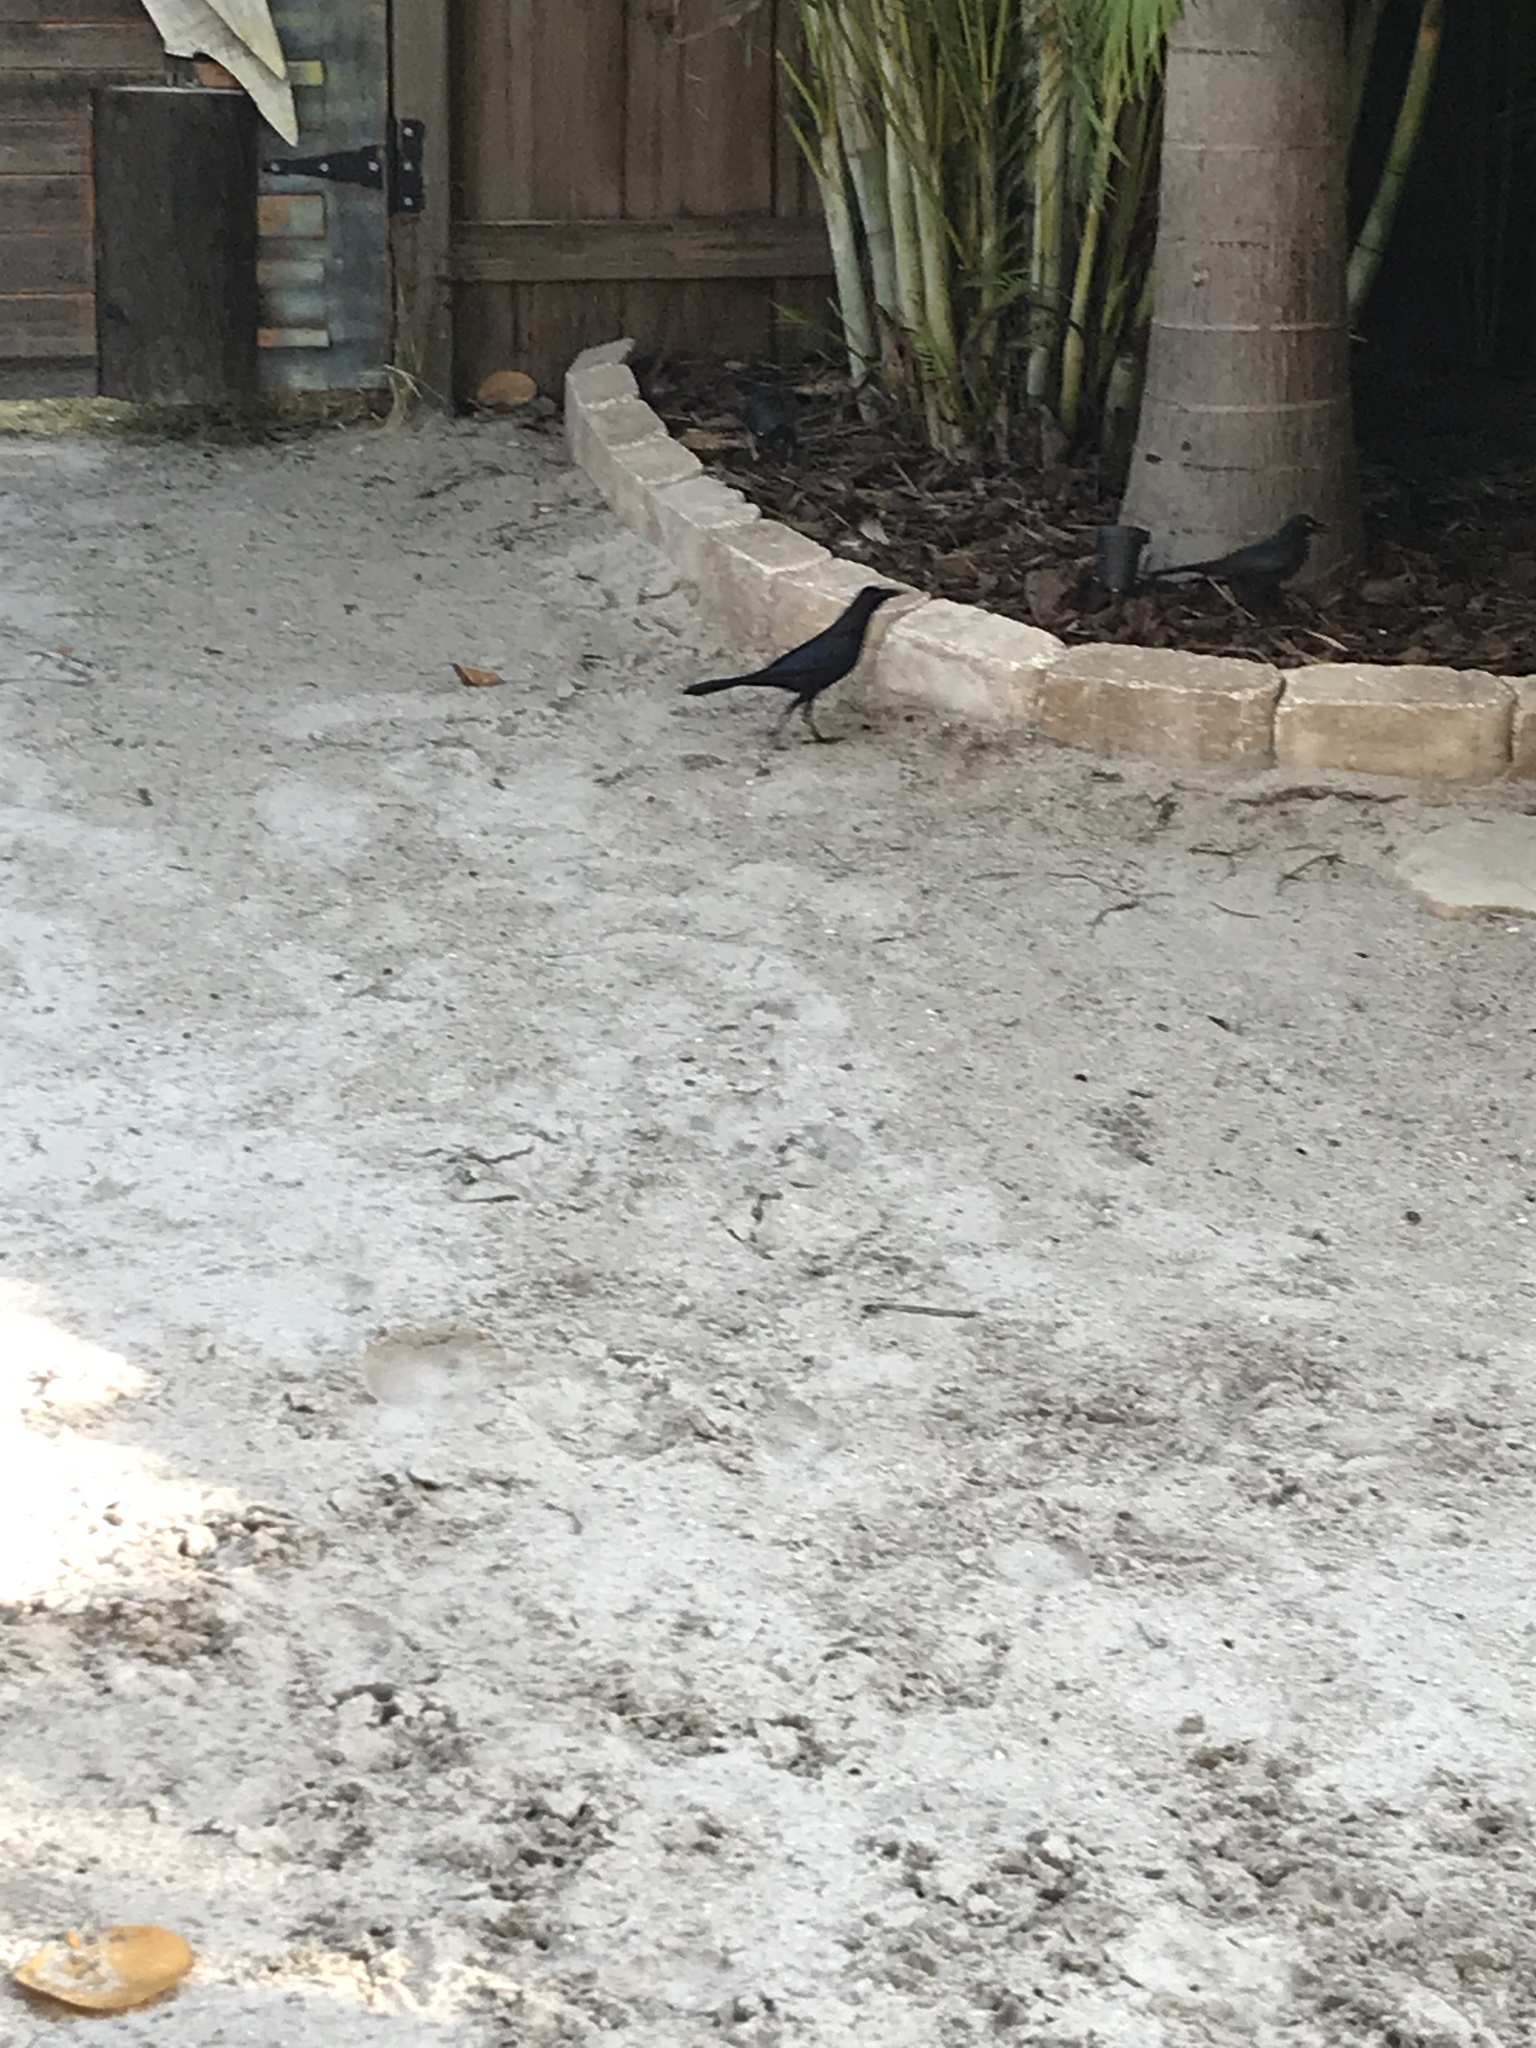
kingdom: Animalia
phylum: Chordata
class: Aves
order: Passeriformes
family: Icteridae
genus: Quiscalus
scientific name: Quiscalus major
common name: Boat-tailed grackle
